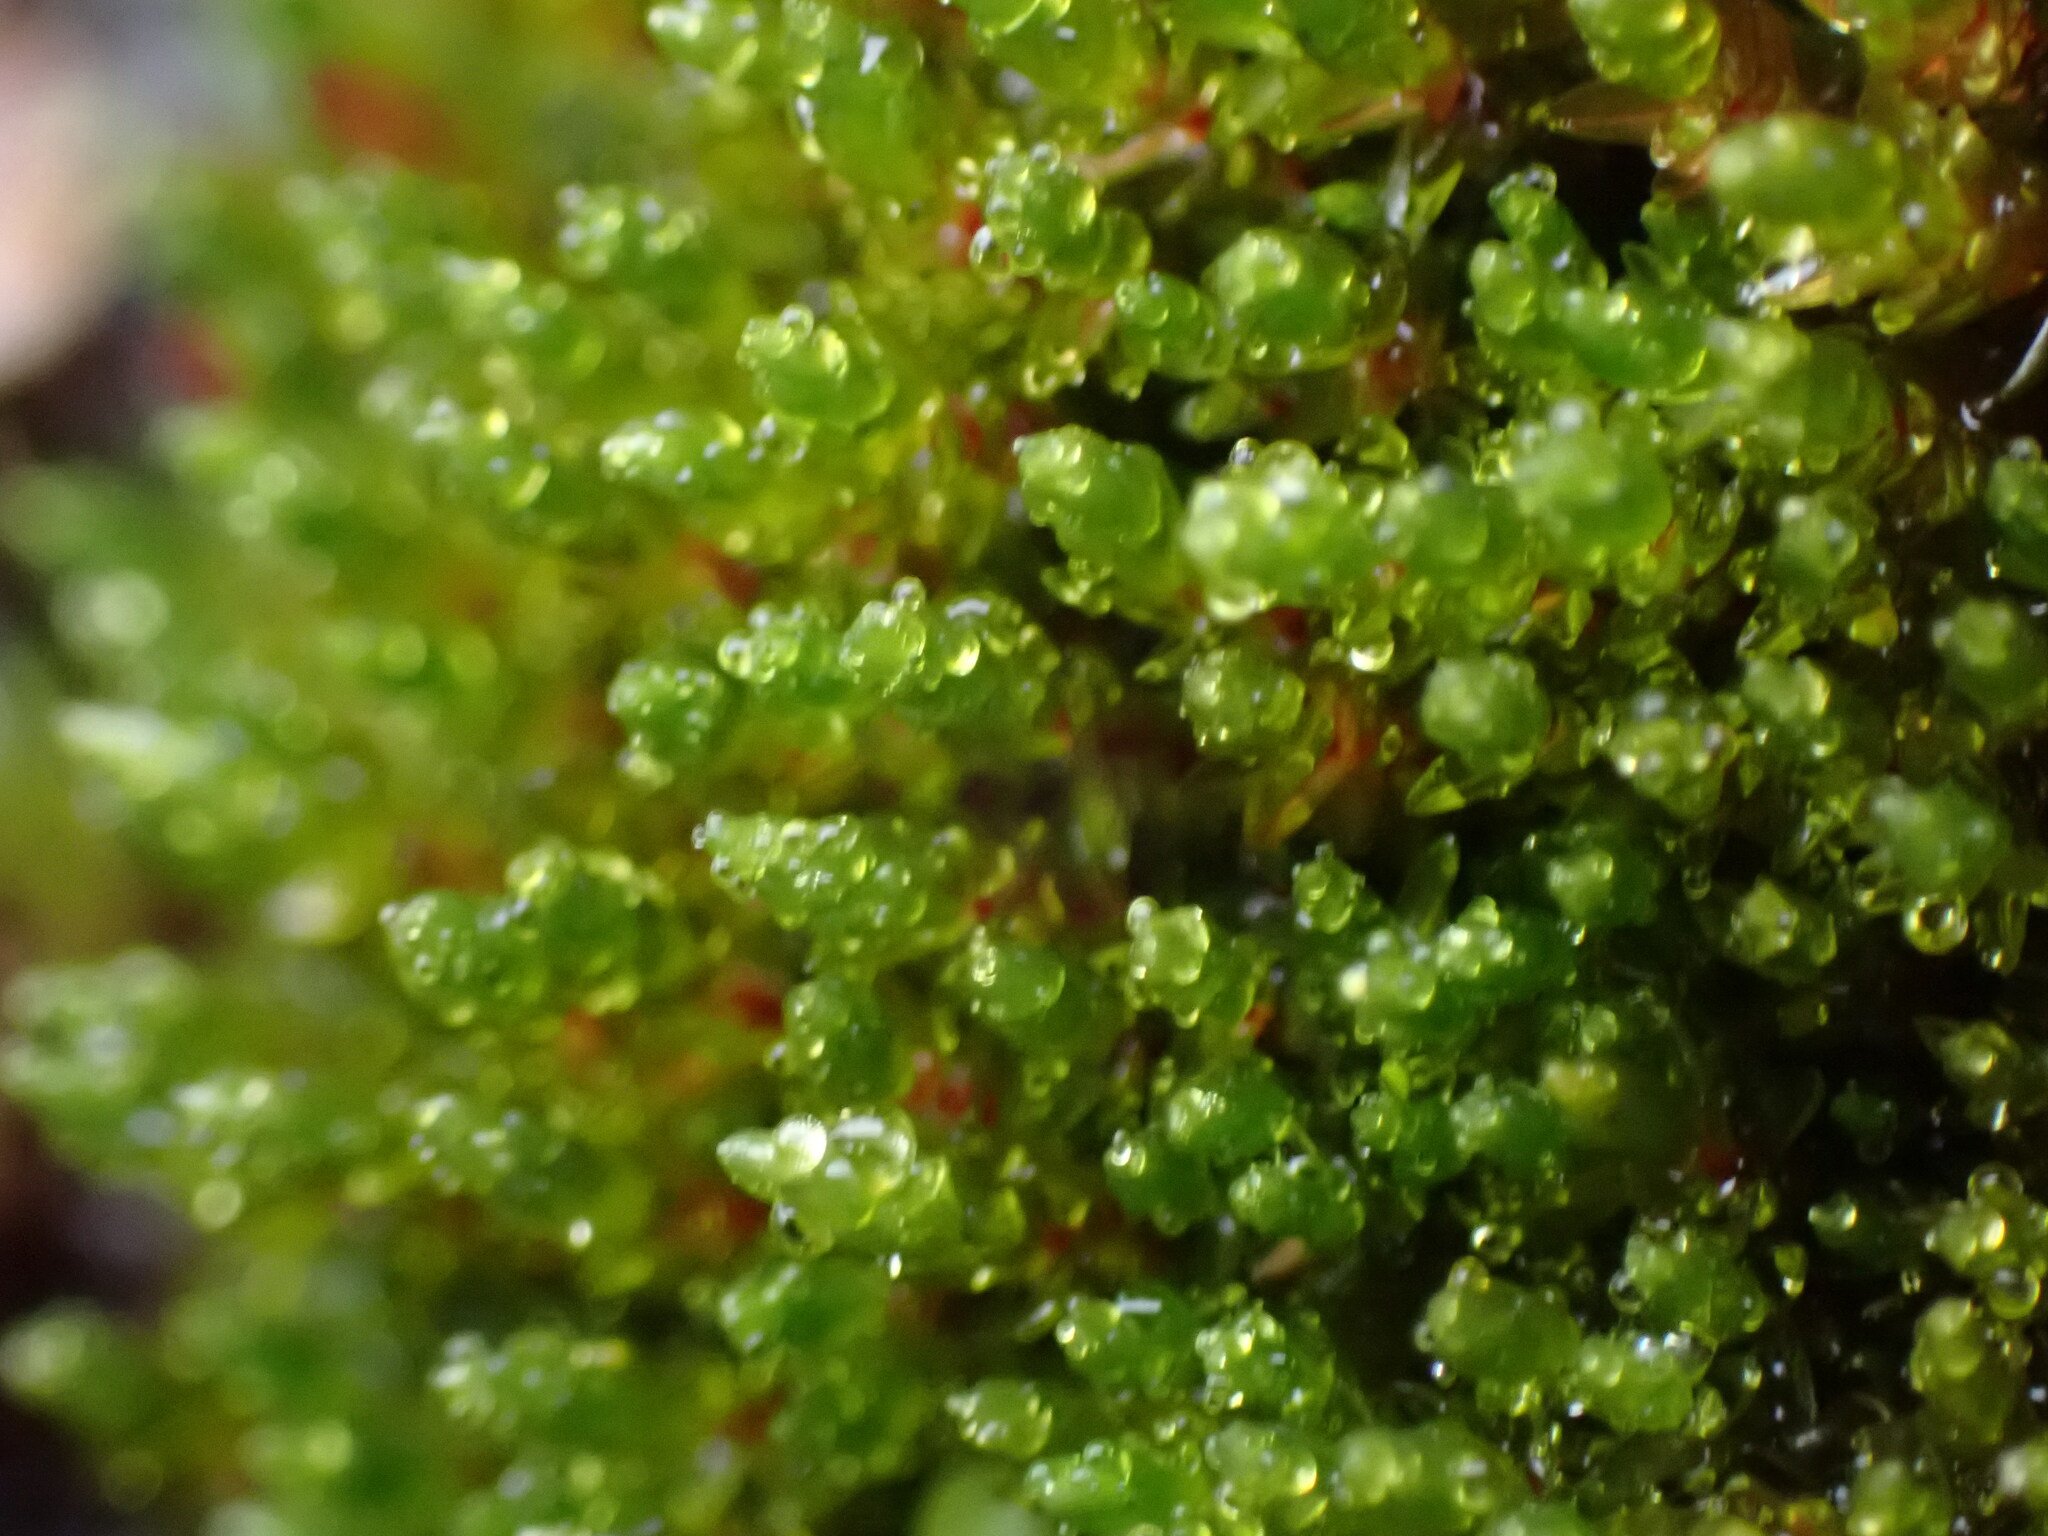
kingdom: Plantae
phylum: Bryophyta
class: Bryopsida
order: Bryales
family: Bryaceae
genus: Imbribryum
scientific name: Imbribryum miniatum
